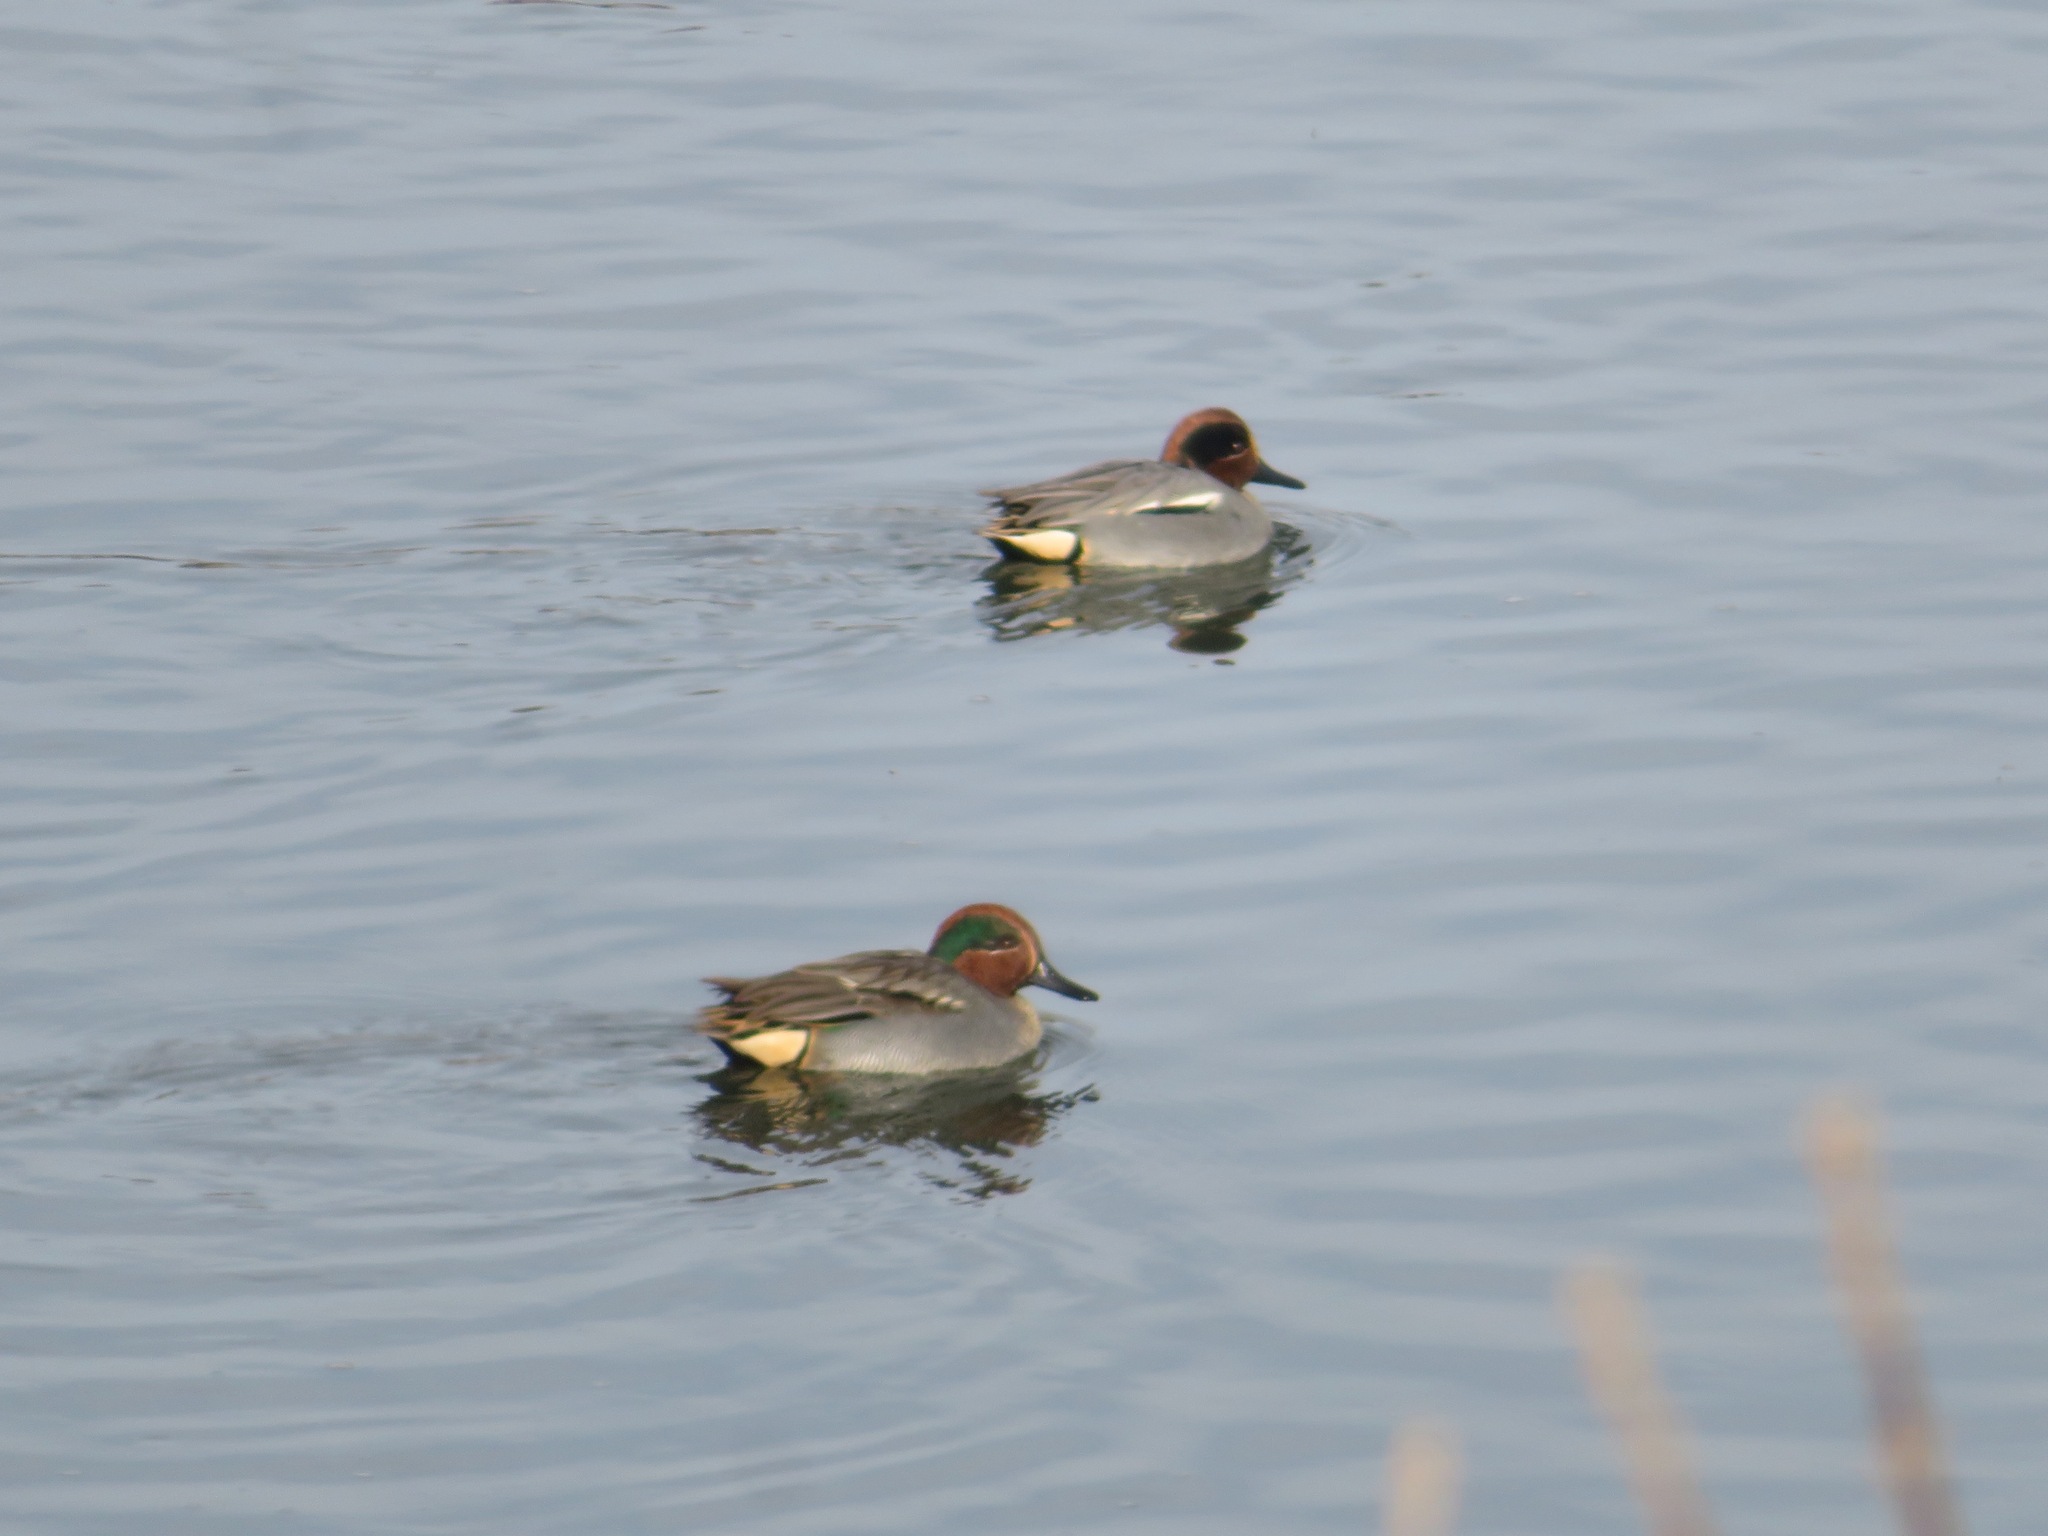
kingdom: Animalia
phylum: Chordata
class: Aves
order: Anseriformes
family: Anatidae
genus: Anas
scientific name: Anas crecca
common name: Eurasian teal
